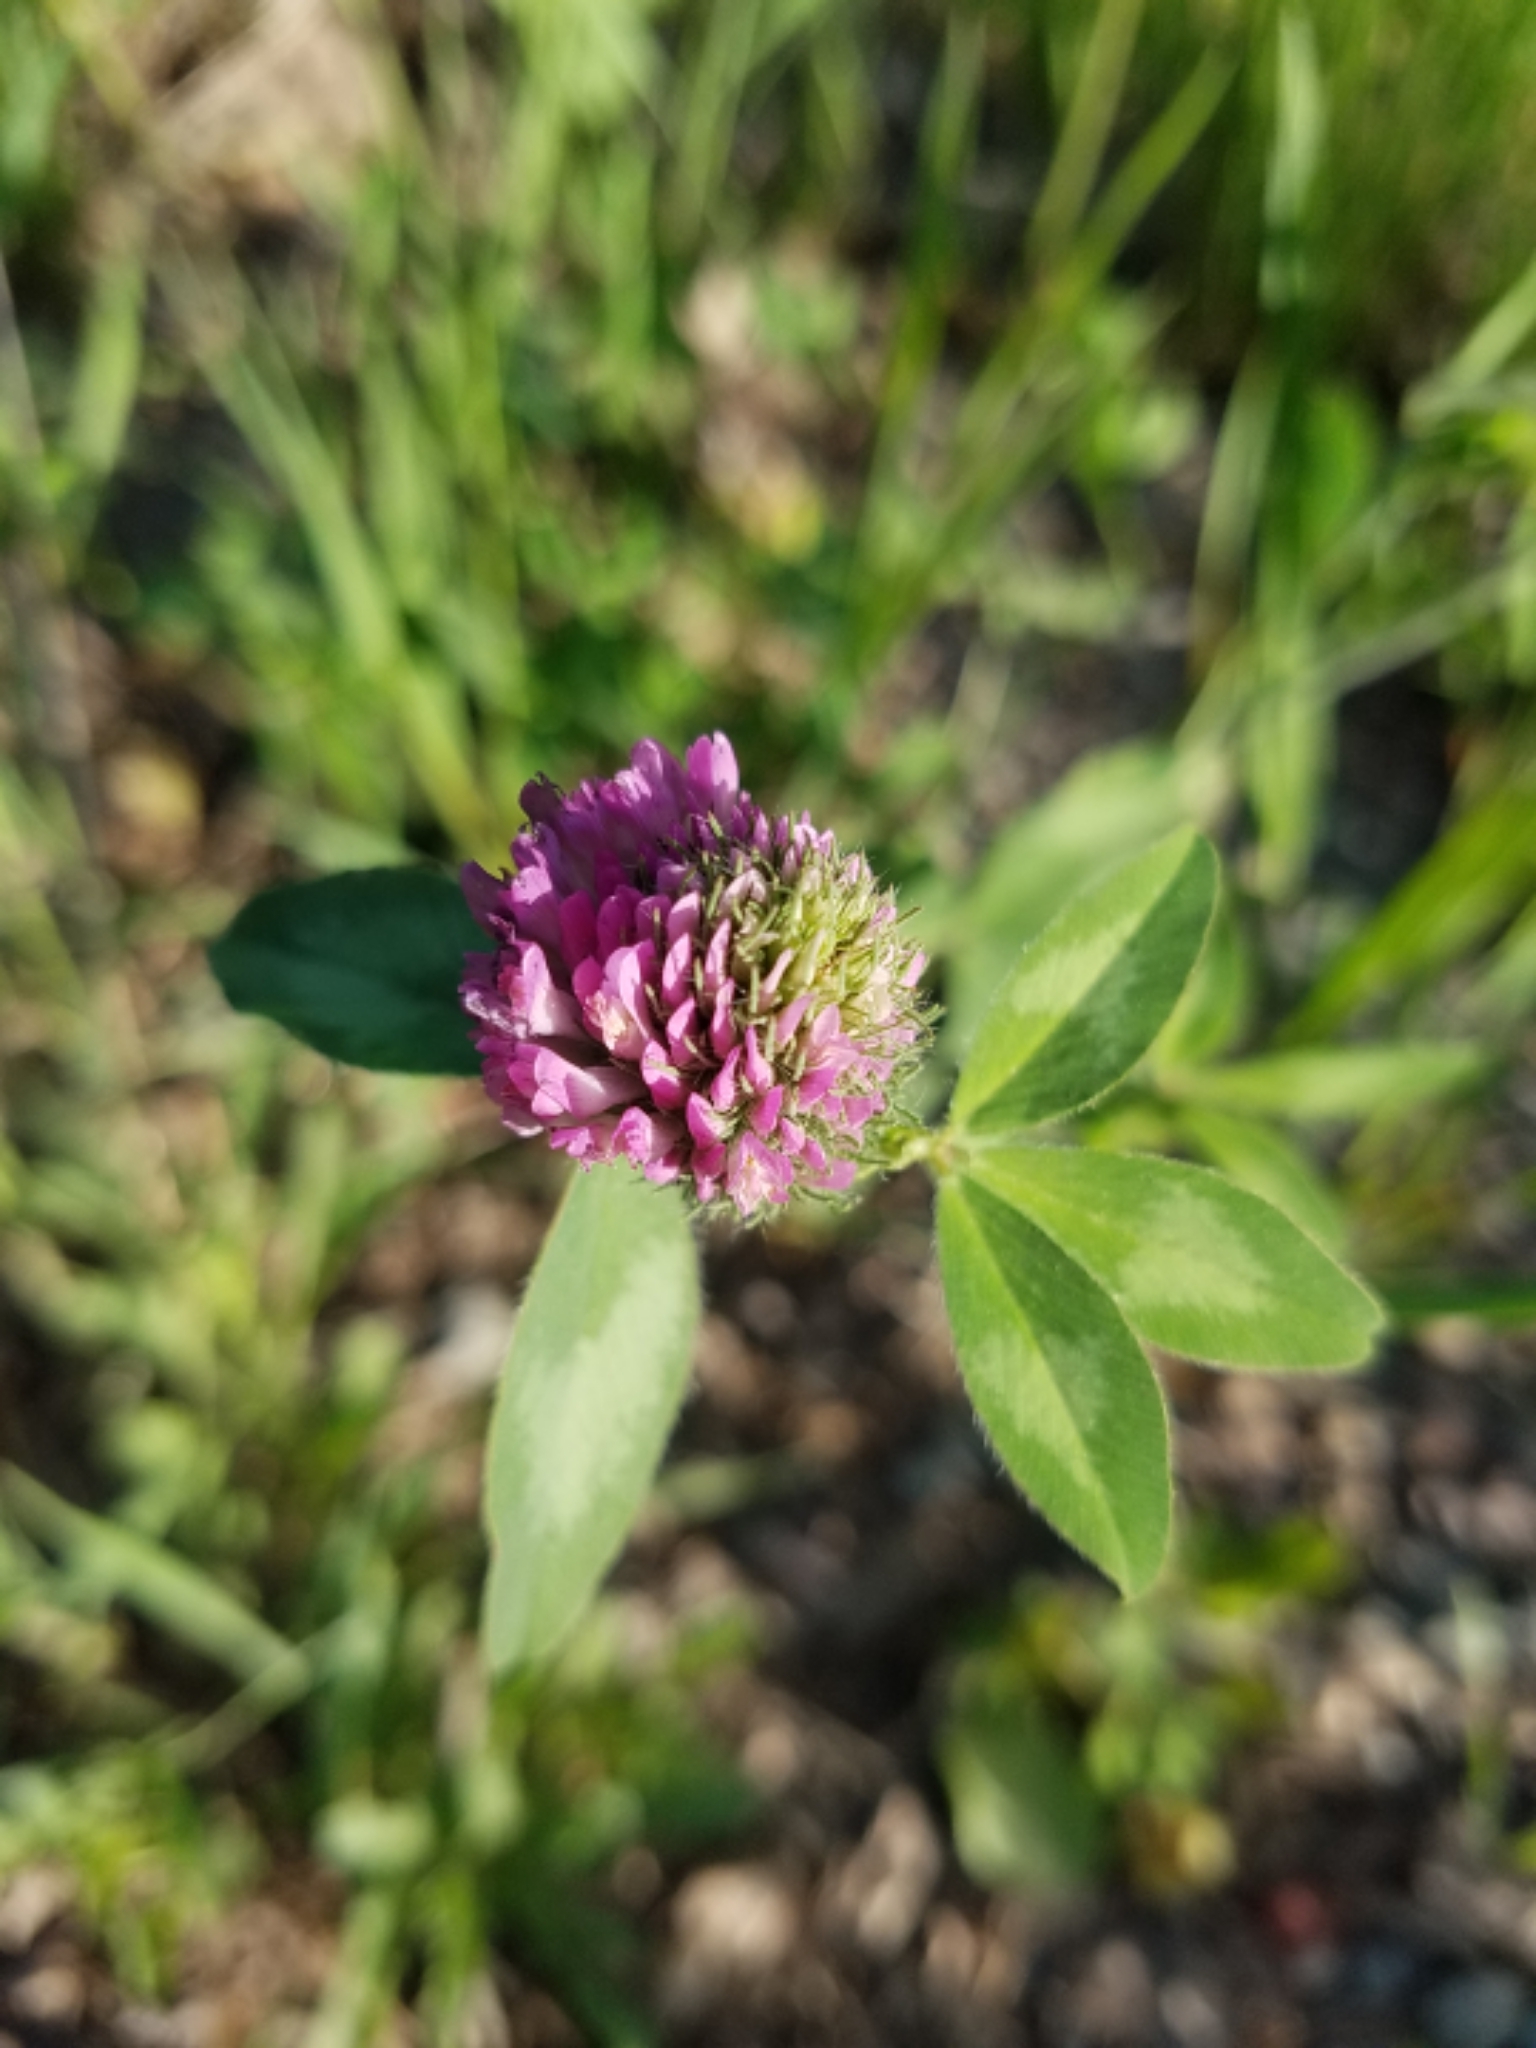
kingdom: Plantae
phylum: Tracheophyta
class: Magnoliopsida
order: Fabales
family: Fabaceae
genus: Trifolium
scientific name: Trifolium pratense
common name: Red clover
